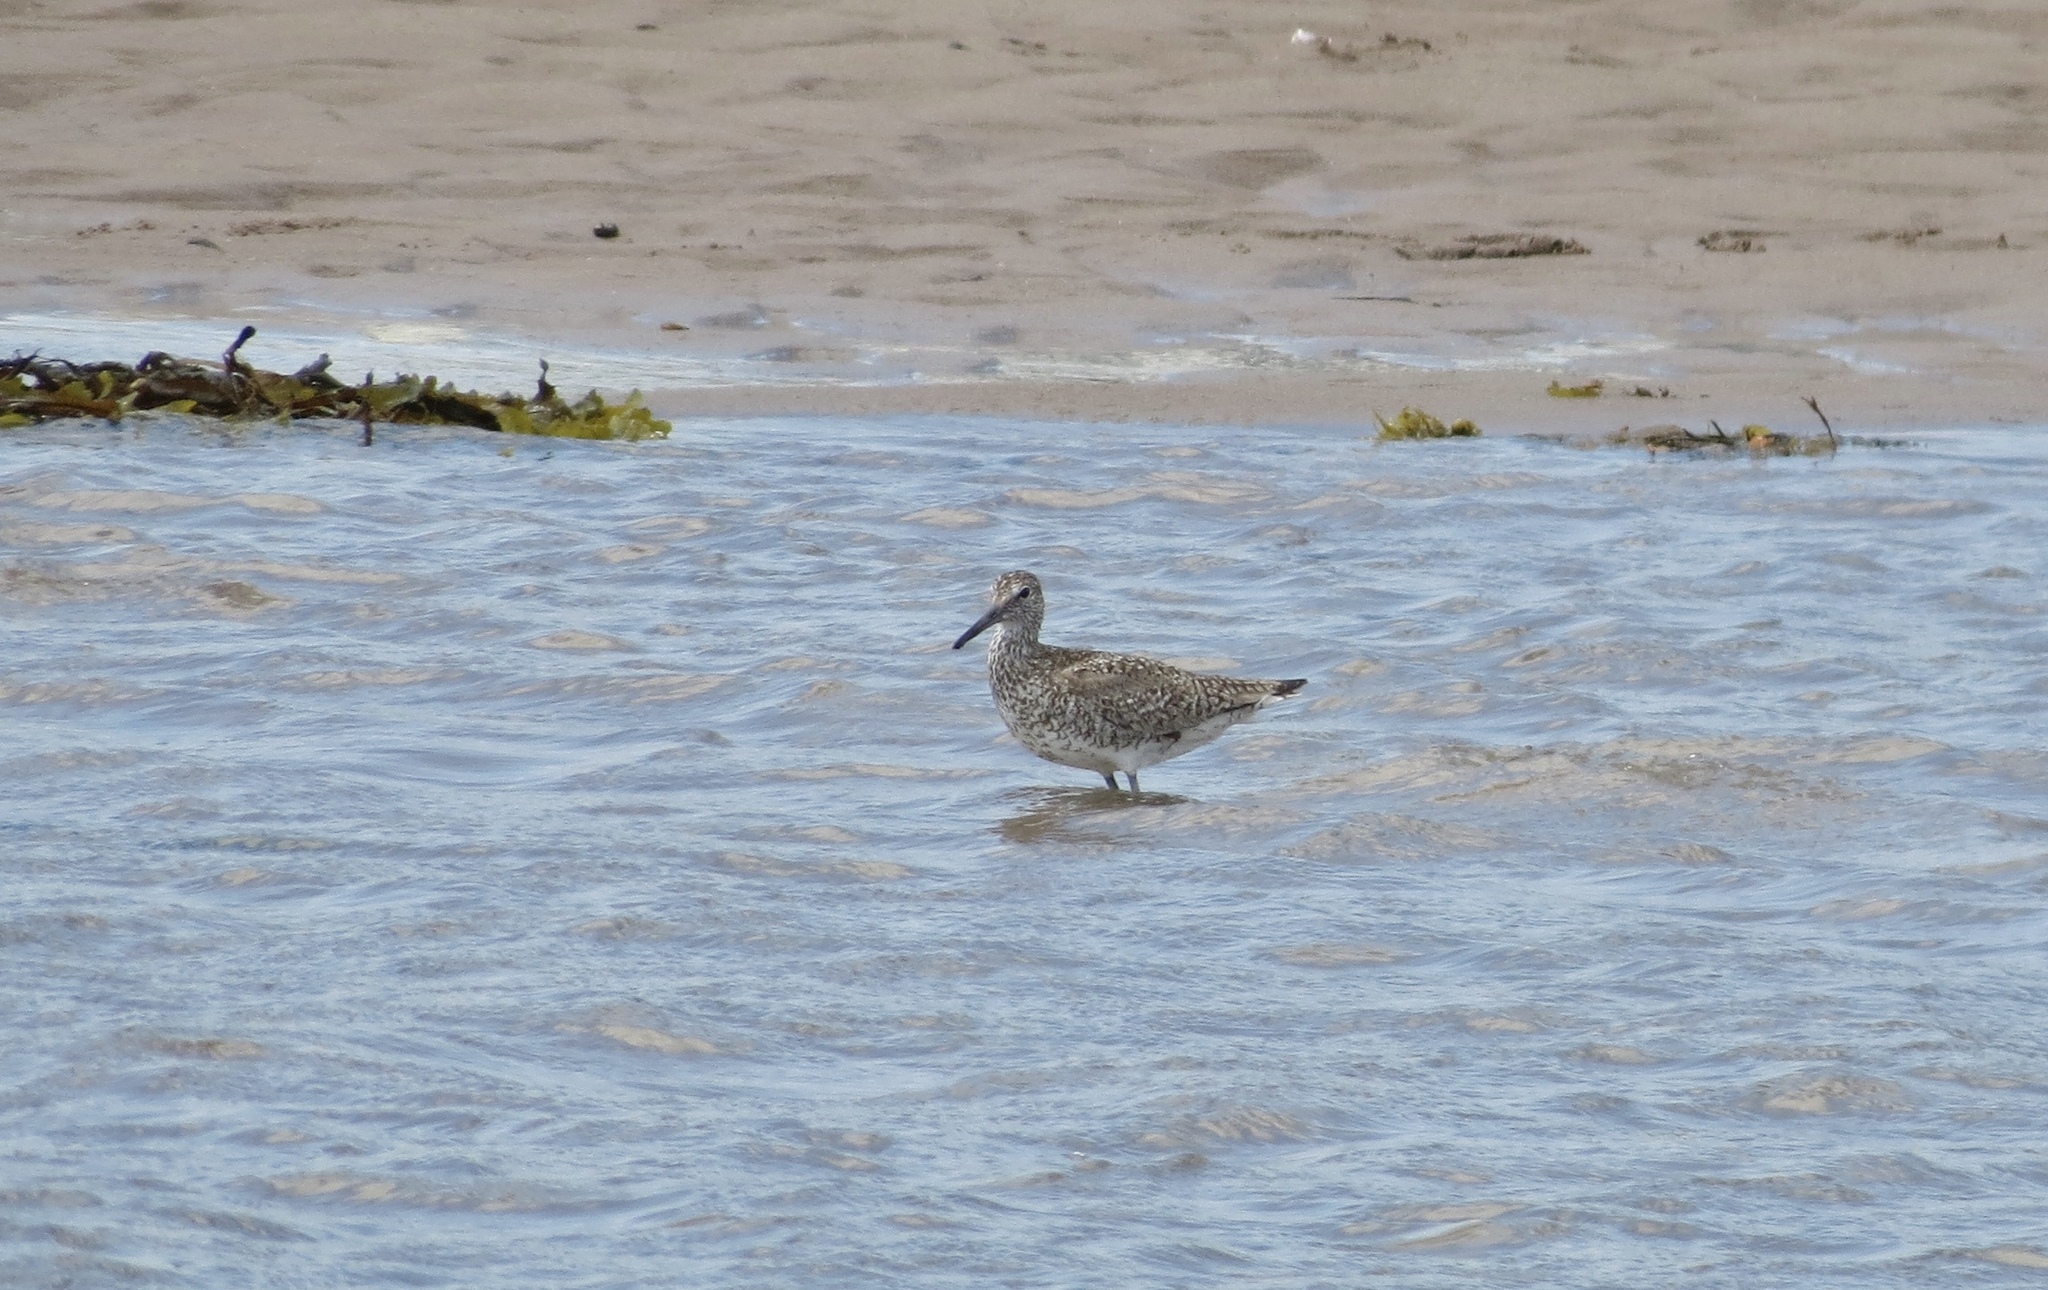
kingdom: Animalia
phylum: Chordata
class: Aves
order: Charadriiformes
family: Scolopacidae
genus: Tringa
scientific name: Tringa semipalmata
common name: Willet
